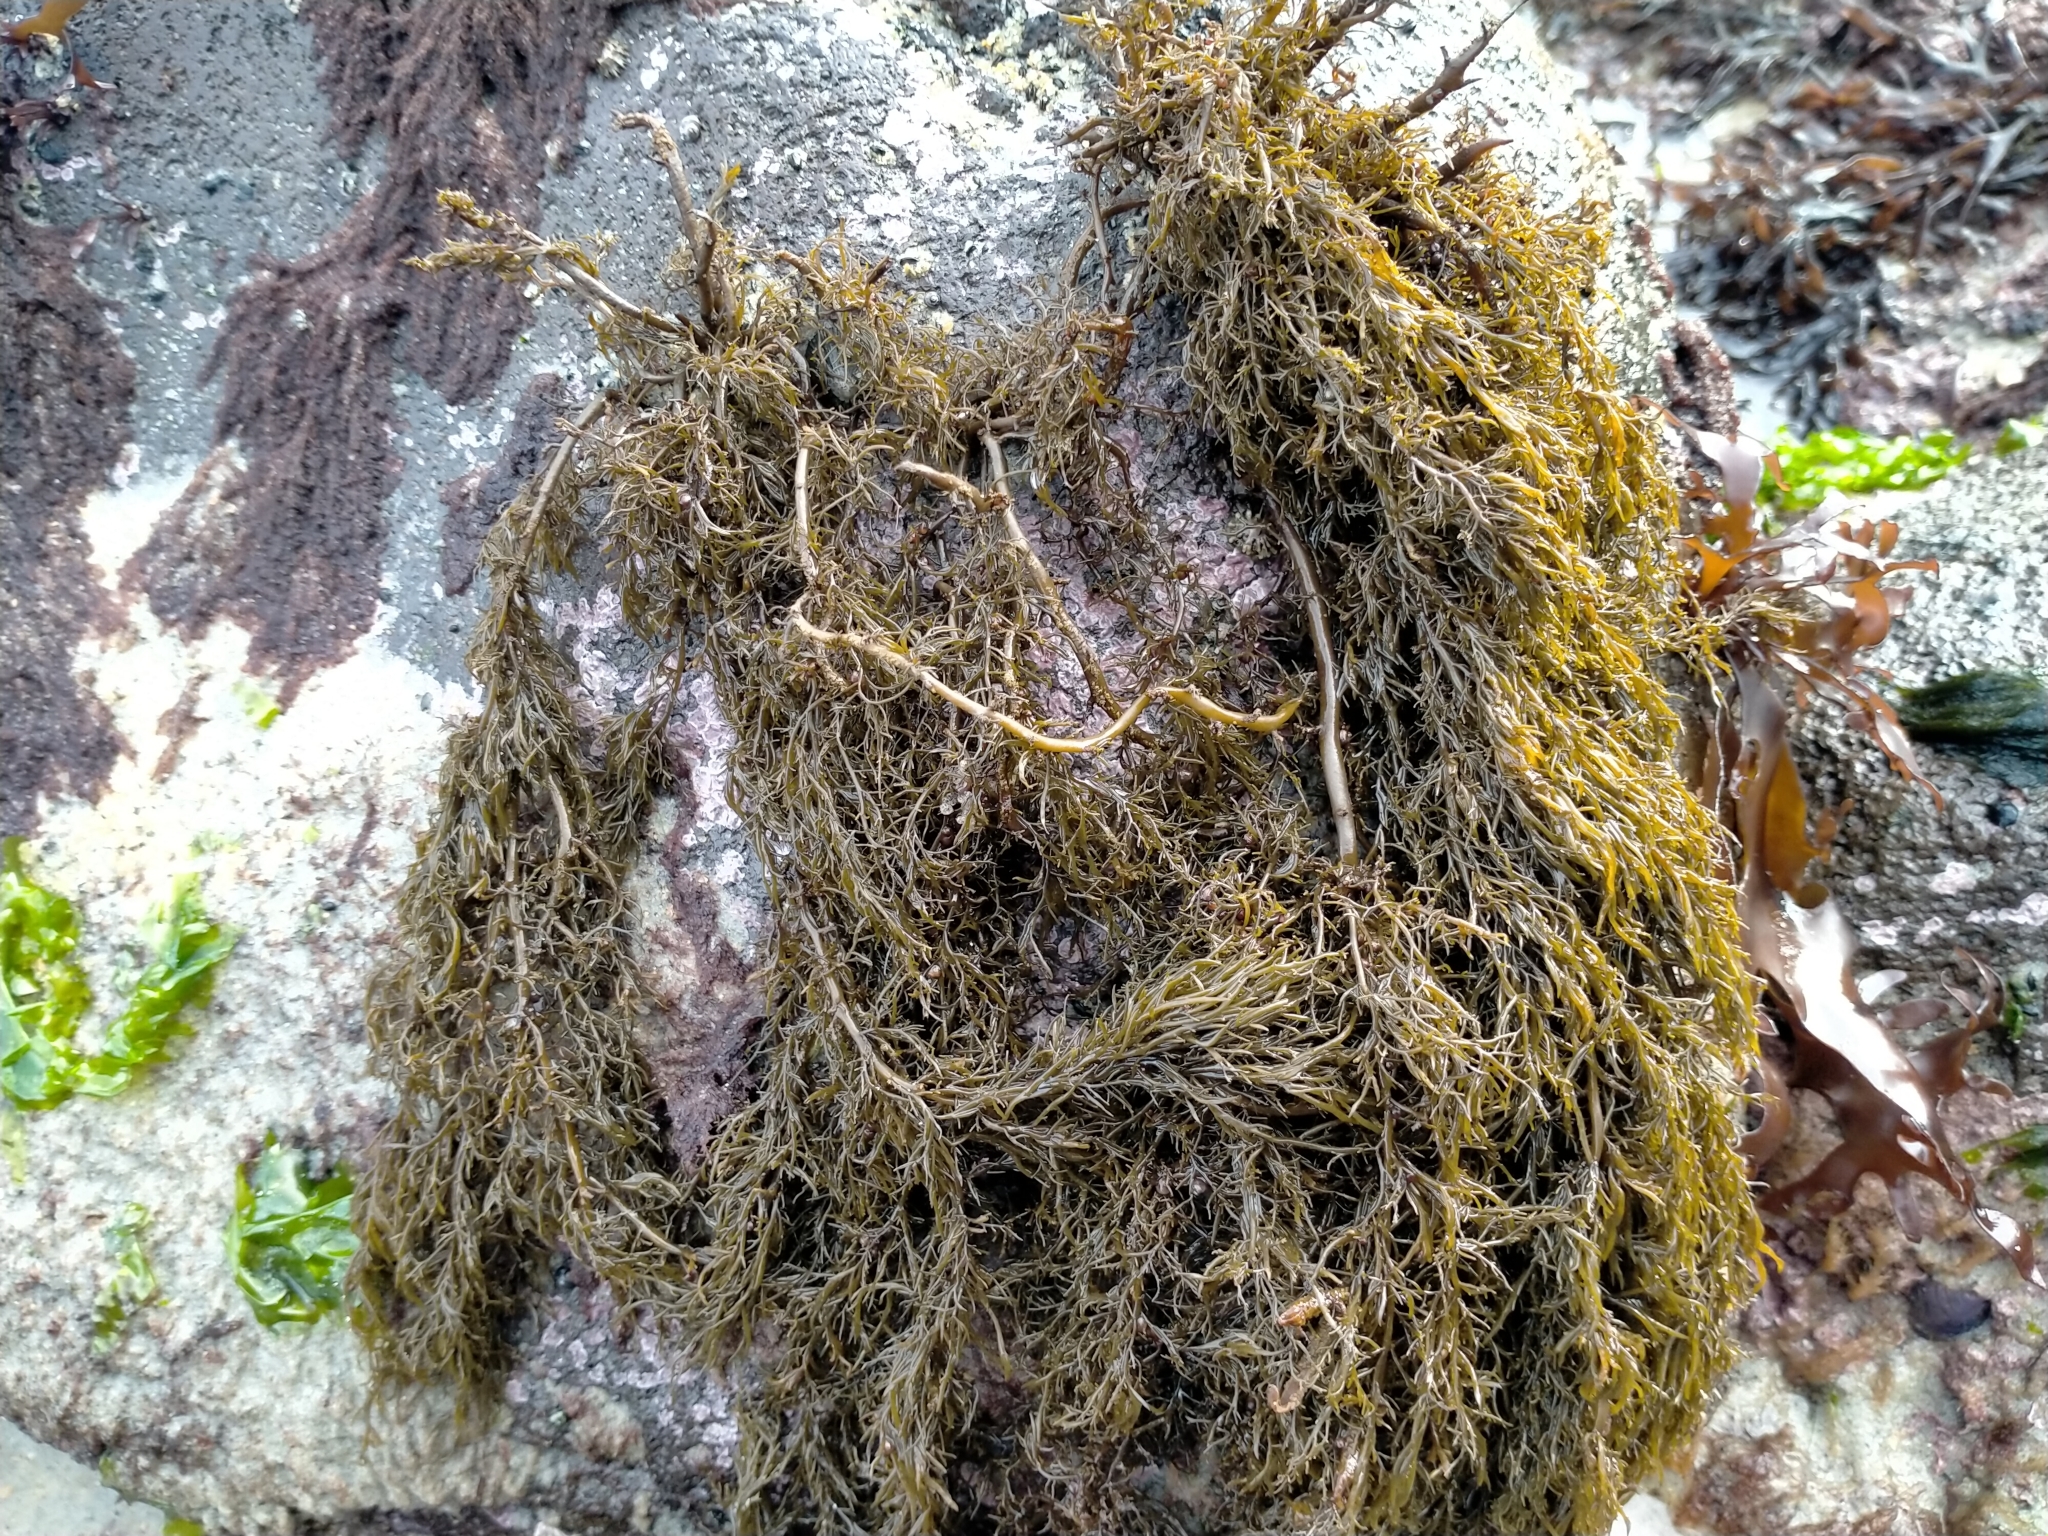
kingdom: Chromista
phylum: Ochrophyta
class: Phaeophyceae
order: Scytothamnales
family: Scytothamnaceae
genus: Scytothamnus
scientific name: Scytothamnus australis
